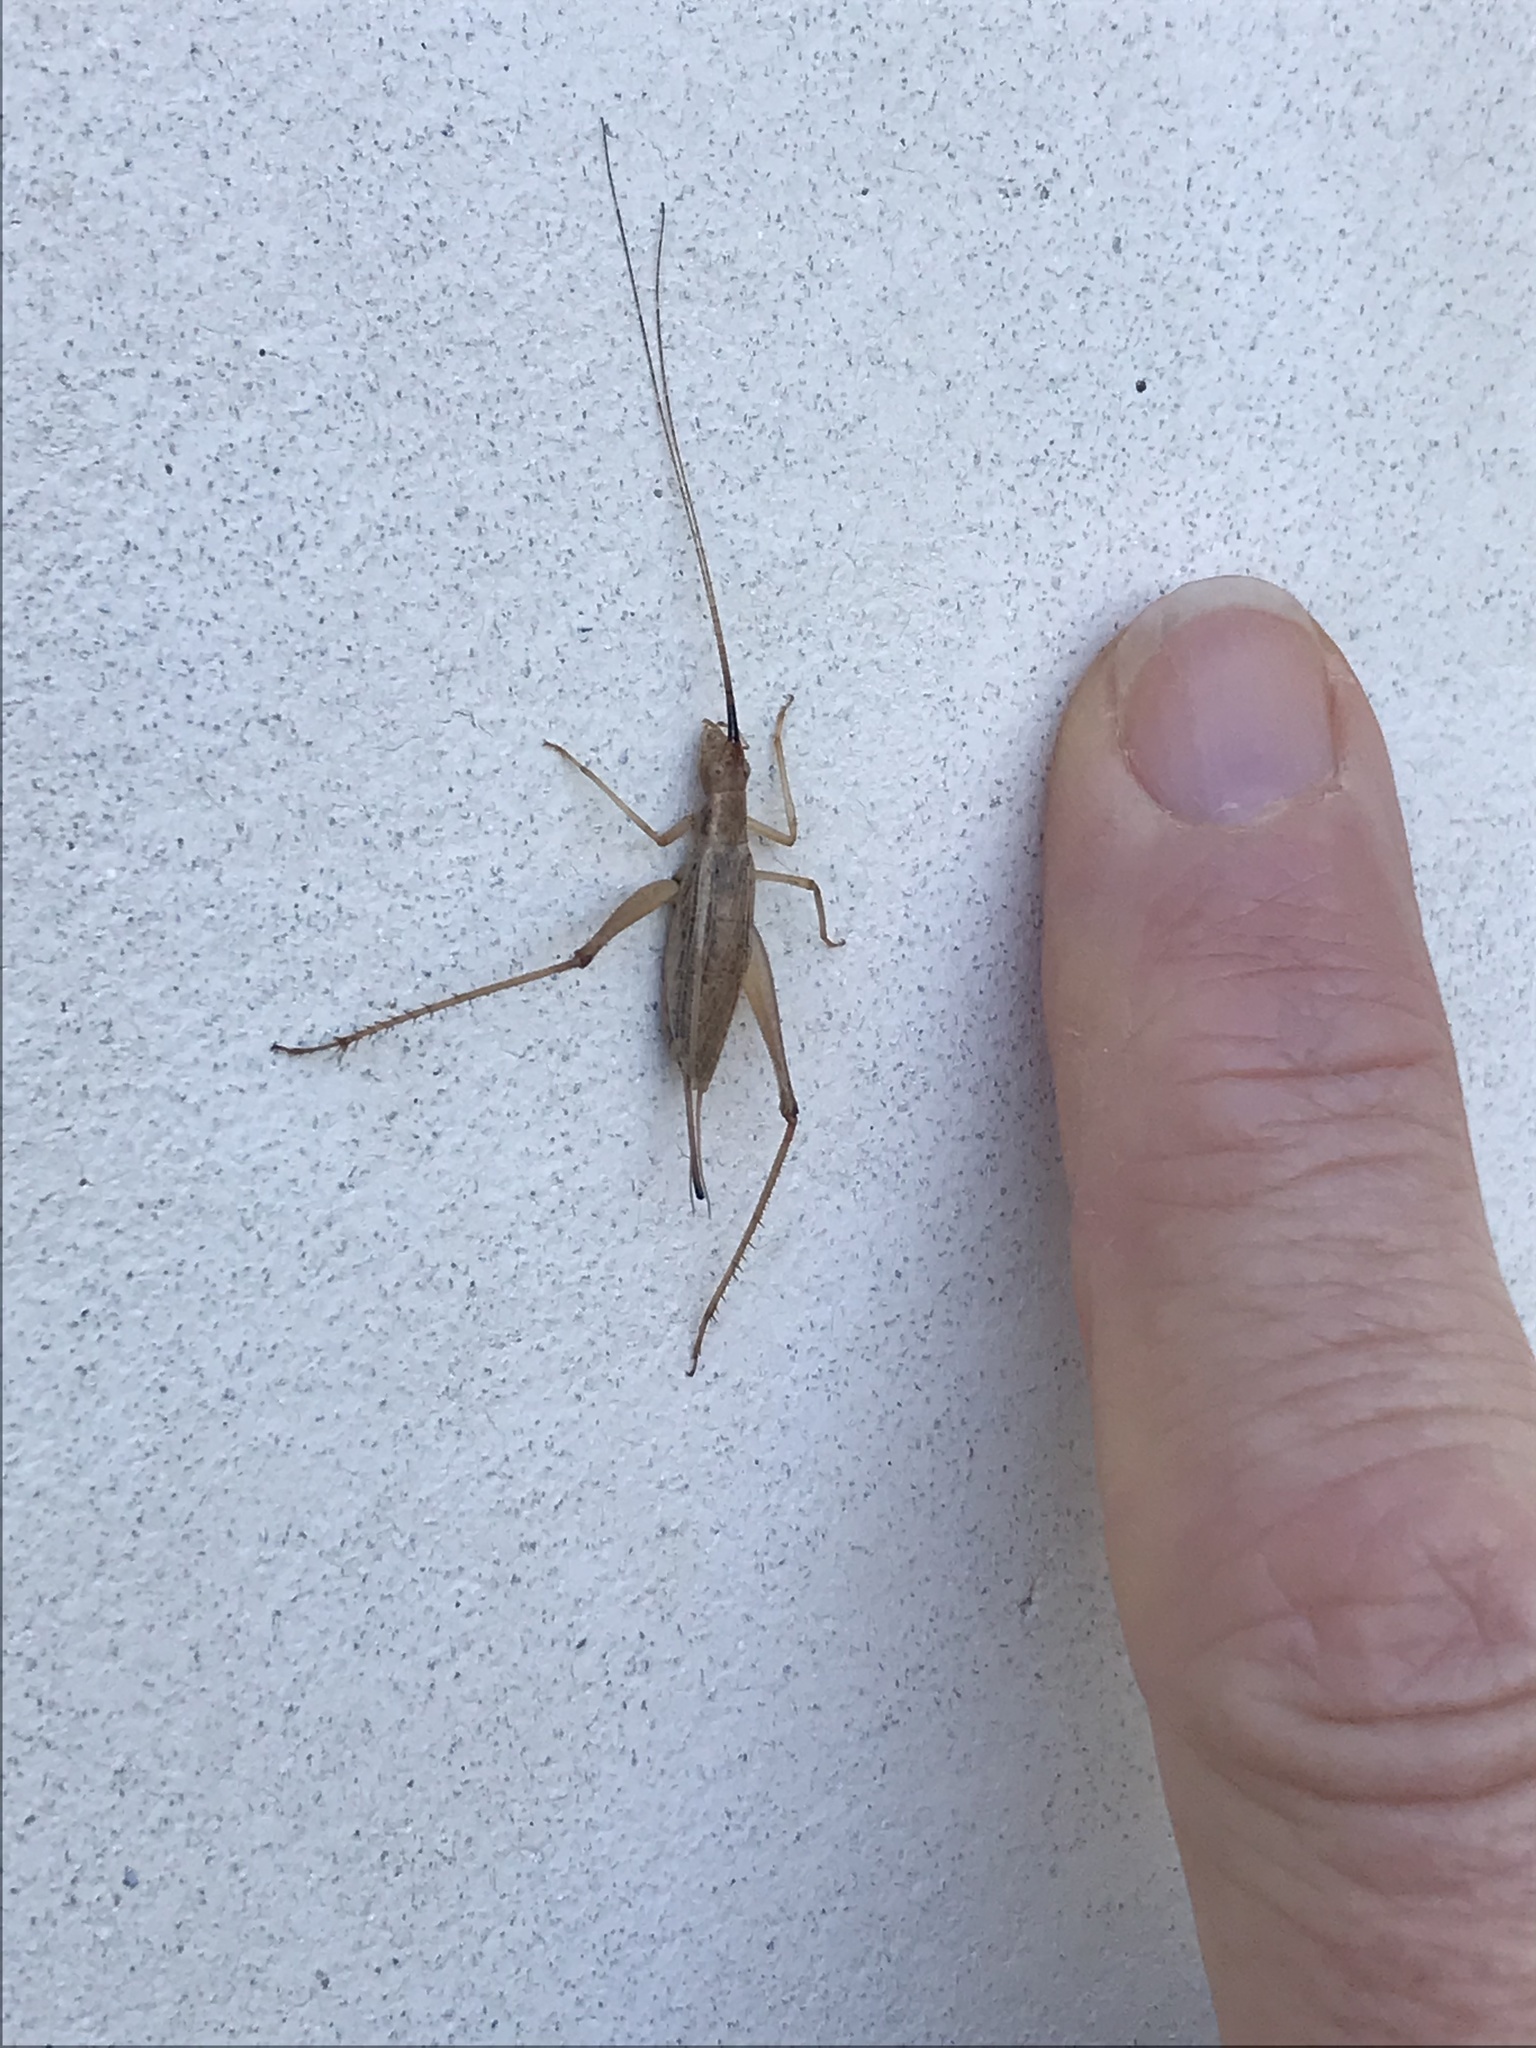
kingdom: Animalia
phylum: Arthropoda
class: Insecta
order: Orthoptera
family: Gryllidae
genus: Oecanthus
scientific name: Oecanthus californicus
